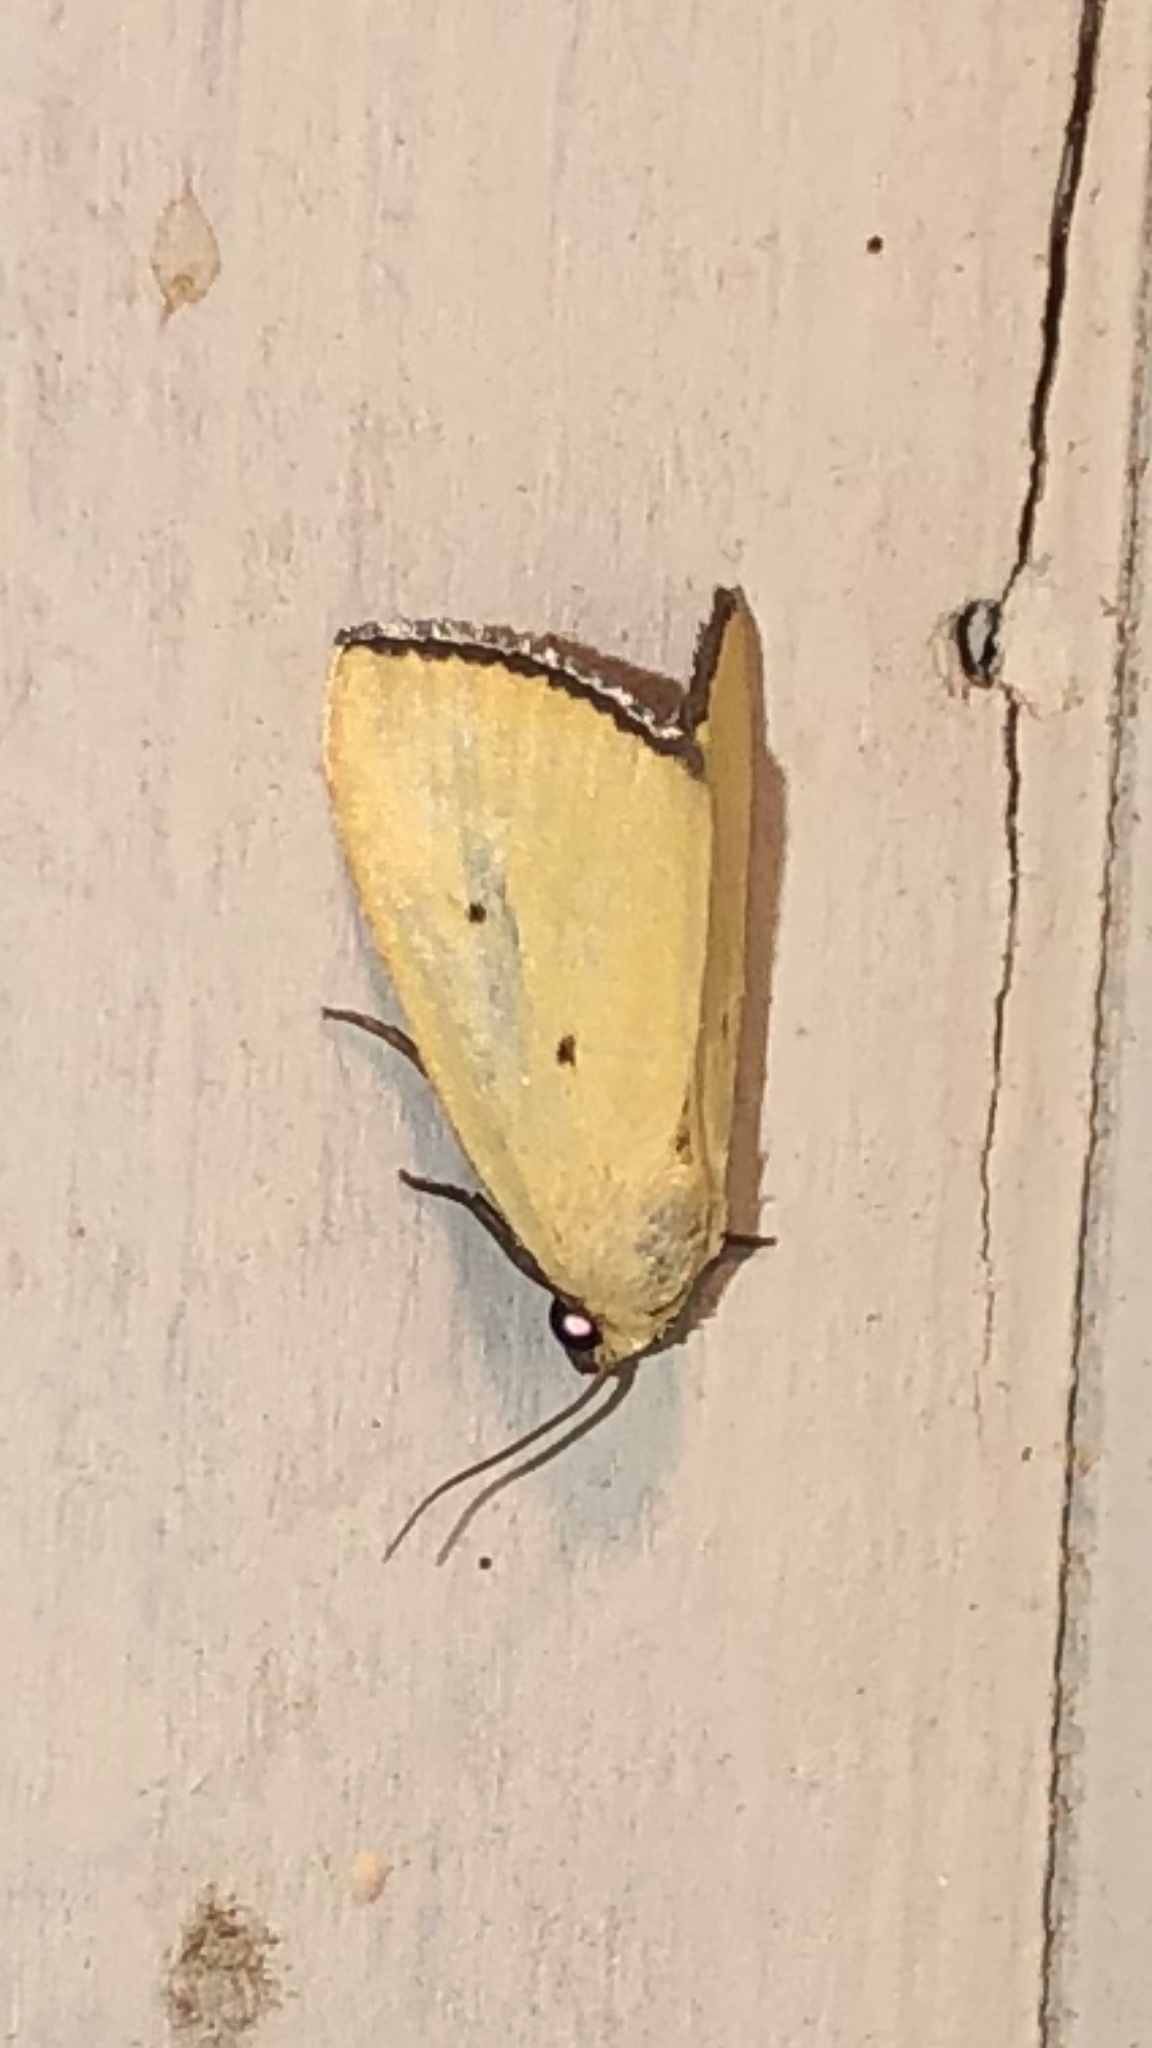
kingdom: Animalia
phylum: Arthropoda
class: Insecta
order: Lepidoptera
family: Noctuidae
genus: Marimatha
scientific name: Marimatha nigrofimbria
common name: Black-bordered lemon moth
